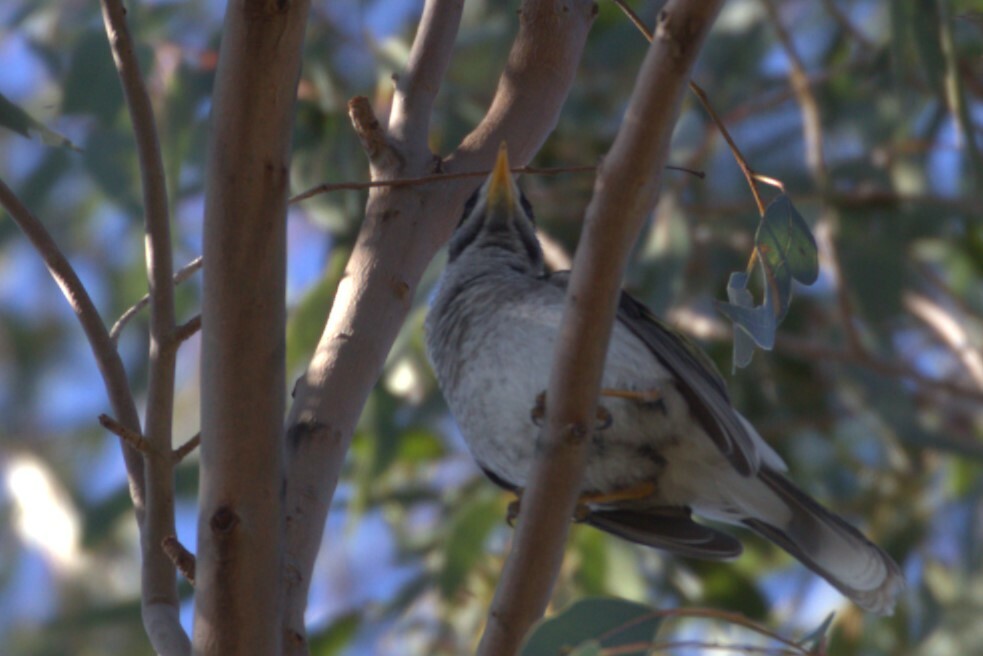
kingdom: Animalia
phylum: Chordata
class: Aves
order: Passeriformes
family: Meliphagidae
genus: Manorina
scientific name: Manorina melanocephala
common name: Noisy miner
